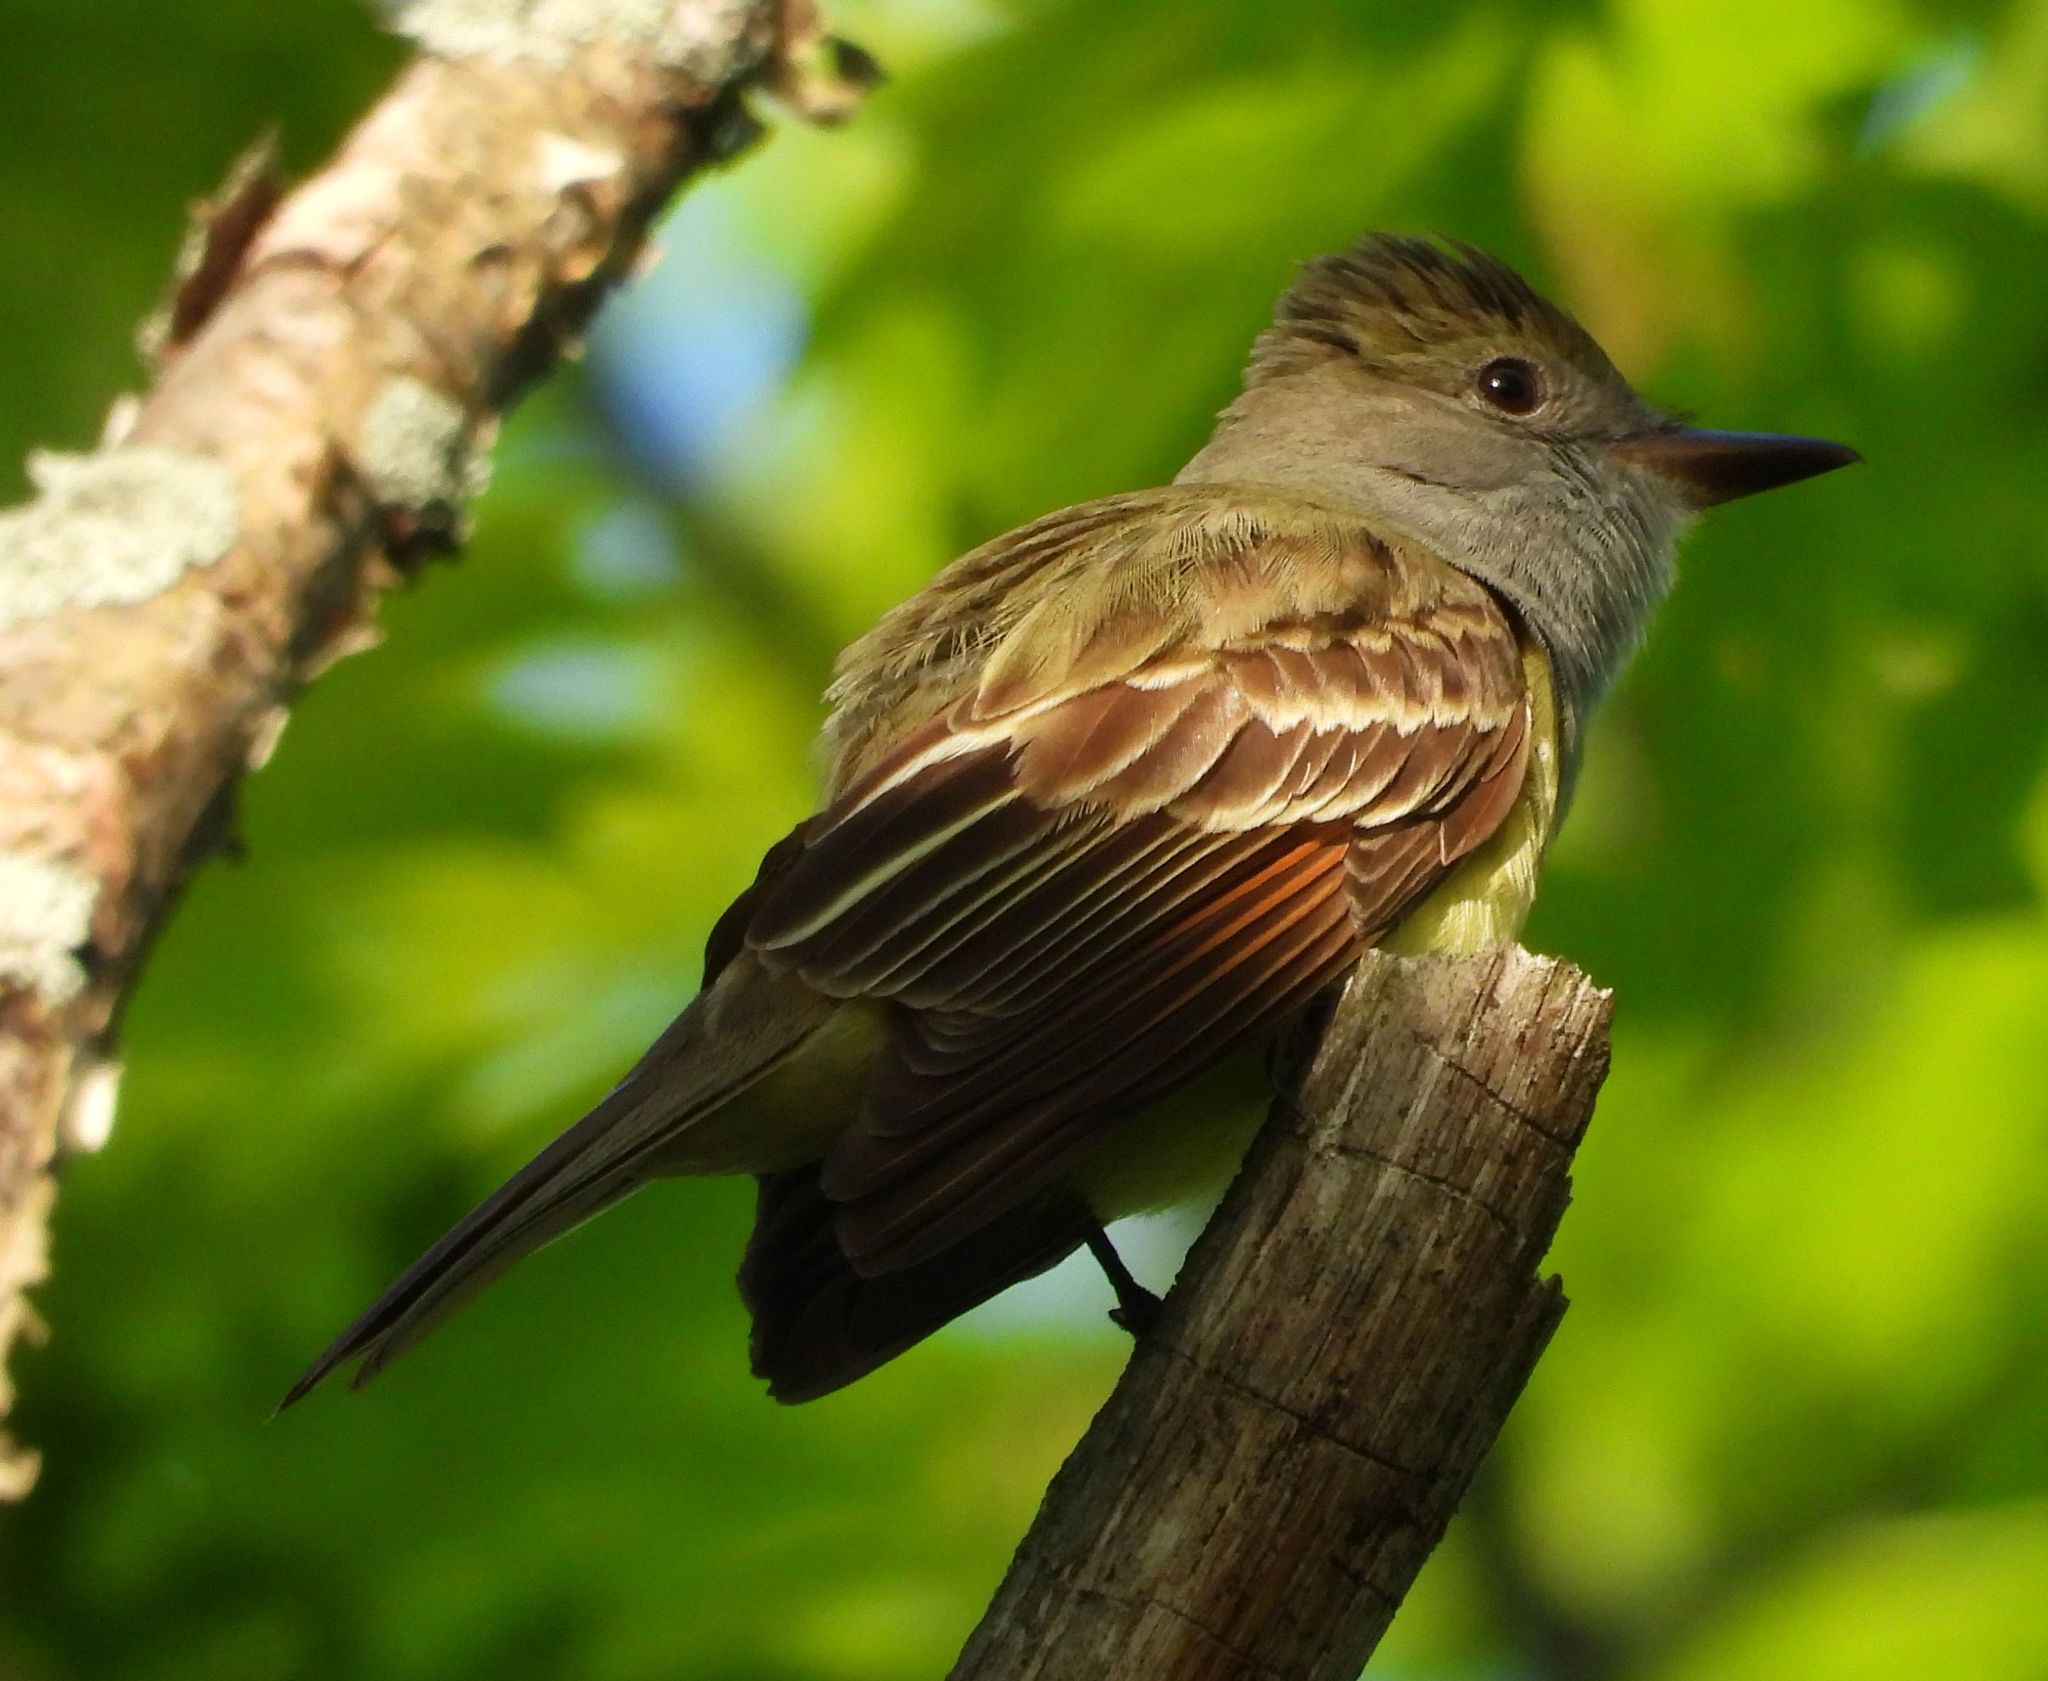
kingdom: Animalia
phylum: Chordata
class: Aves
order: Passeriformes
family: Tyrannidae
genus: Myiarchus
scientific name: Myiarchus crinitus
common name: Great crested flycatcher
